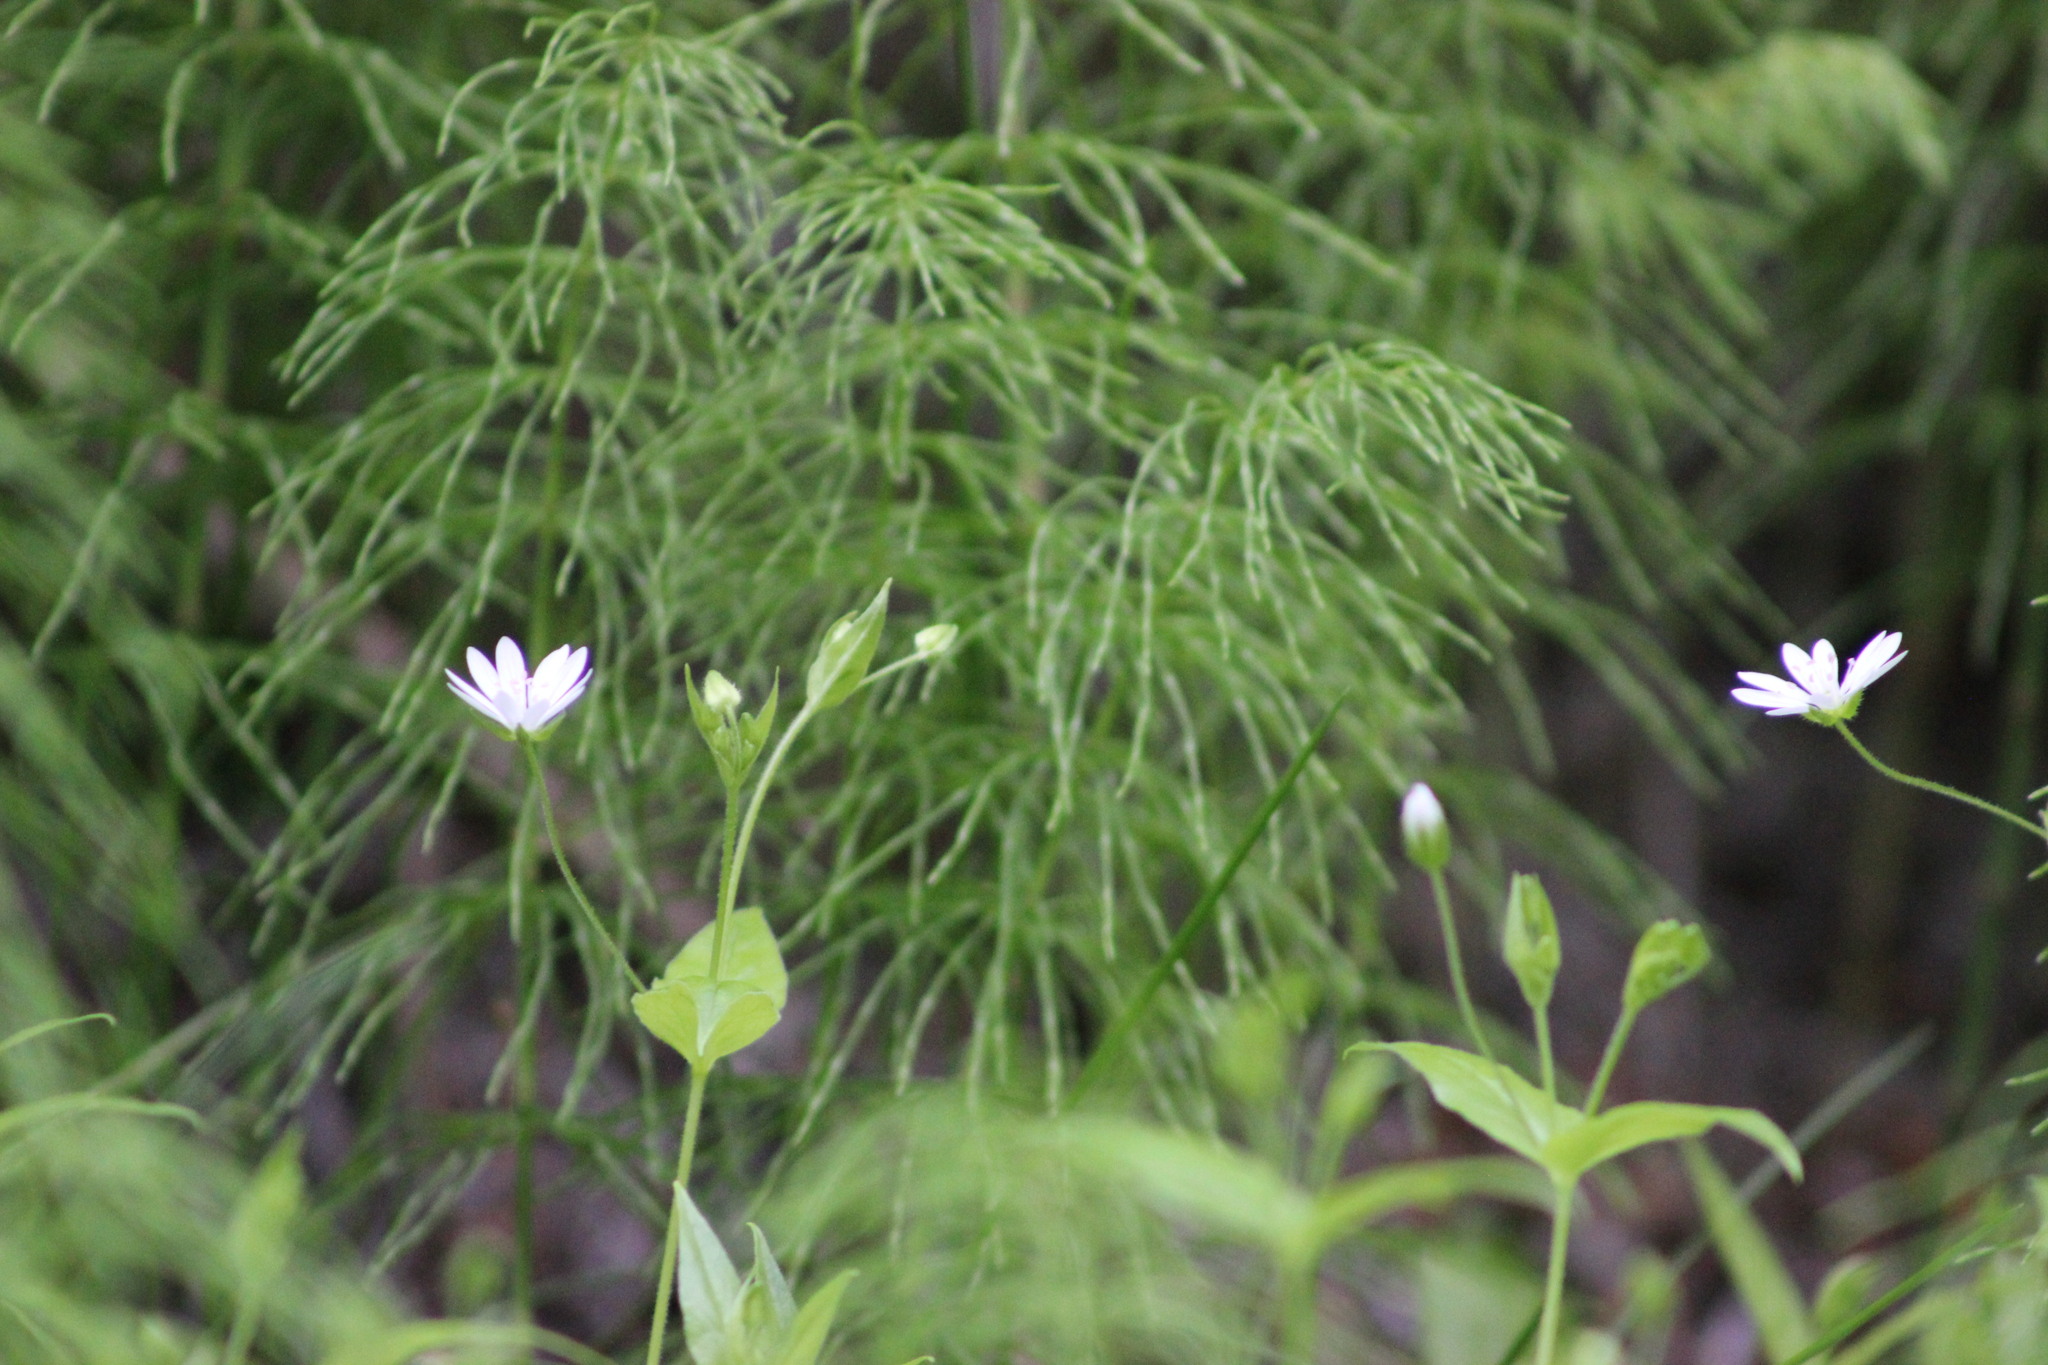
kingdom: Plantae
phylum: Tracheophyta
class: Magnoliopsida
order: Caryophyllales
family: Caryophyllaceae
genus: Stellaria
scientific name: Stellaria bungeana
